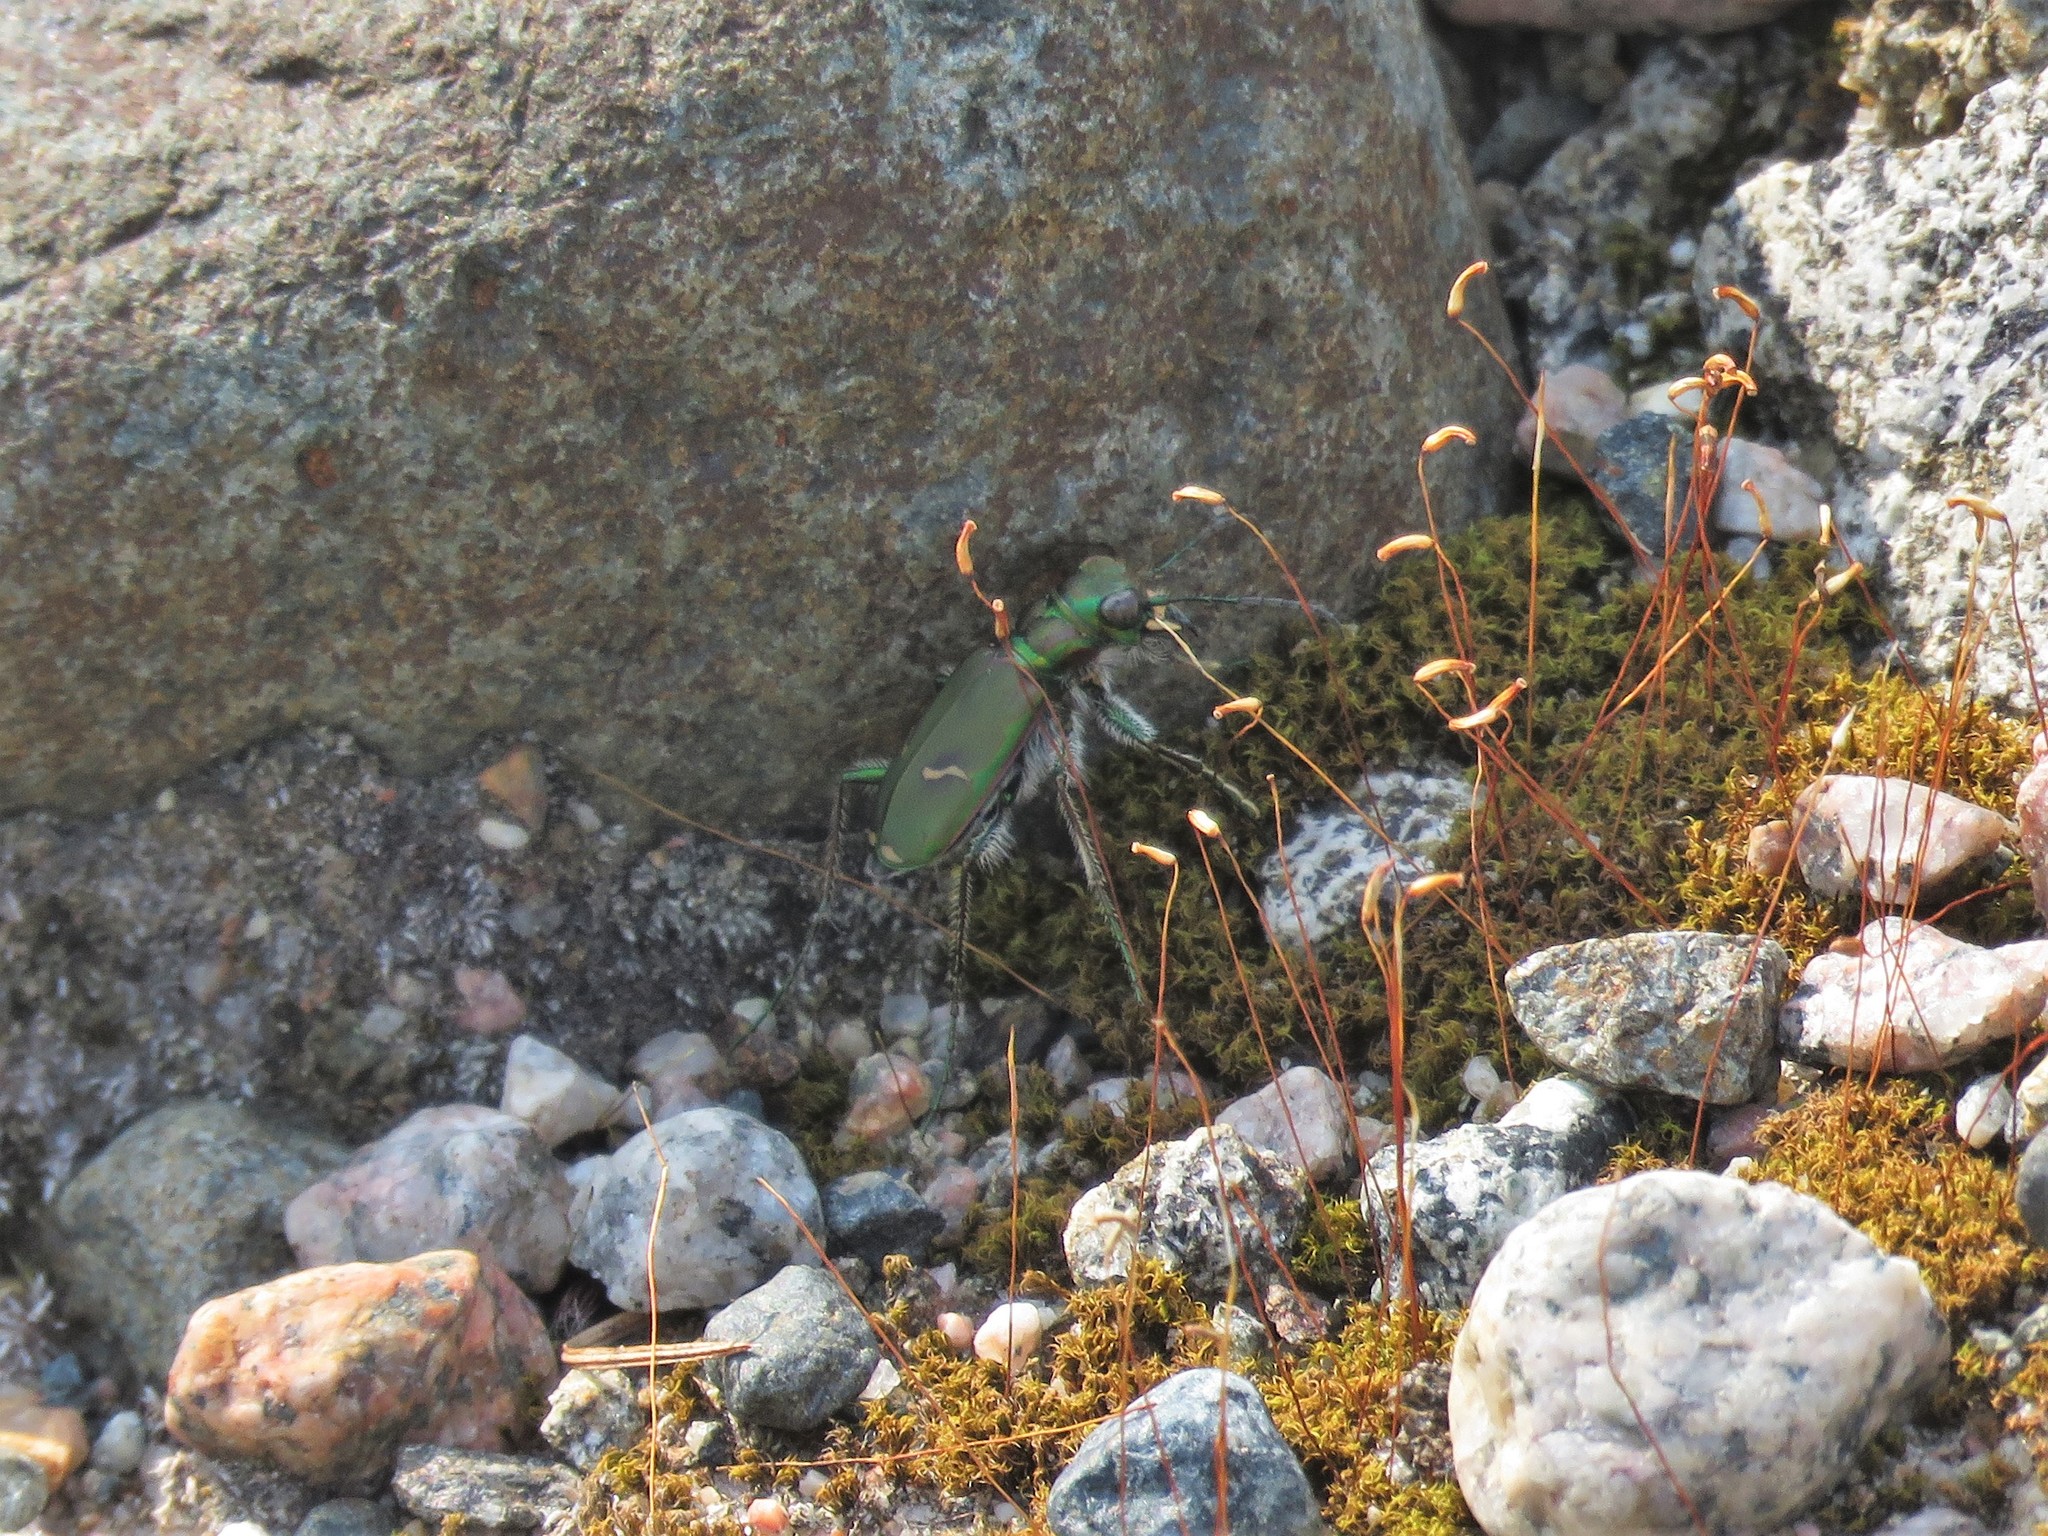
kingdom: Animalia
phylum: Arthropoda
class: Insecta
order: Coleoptera
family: Carabidae
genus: Cicindela
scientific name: Cicindela purpurea
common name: Cow path tiger beetle
